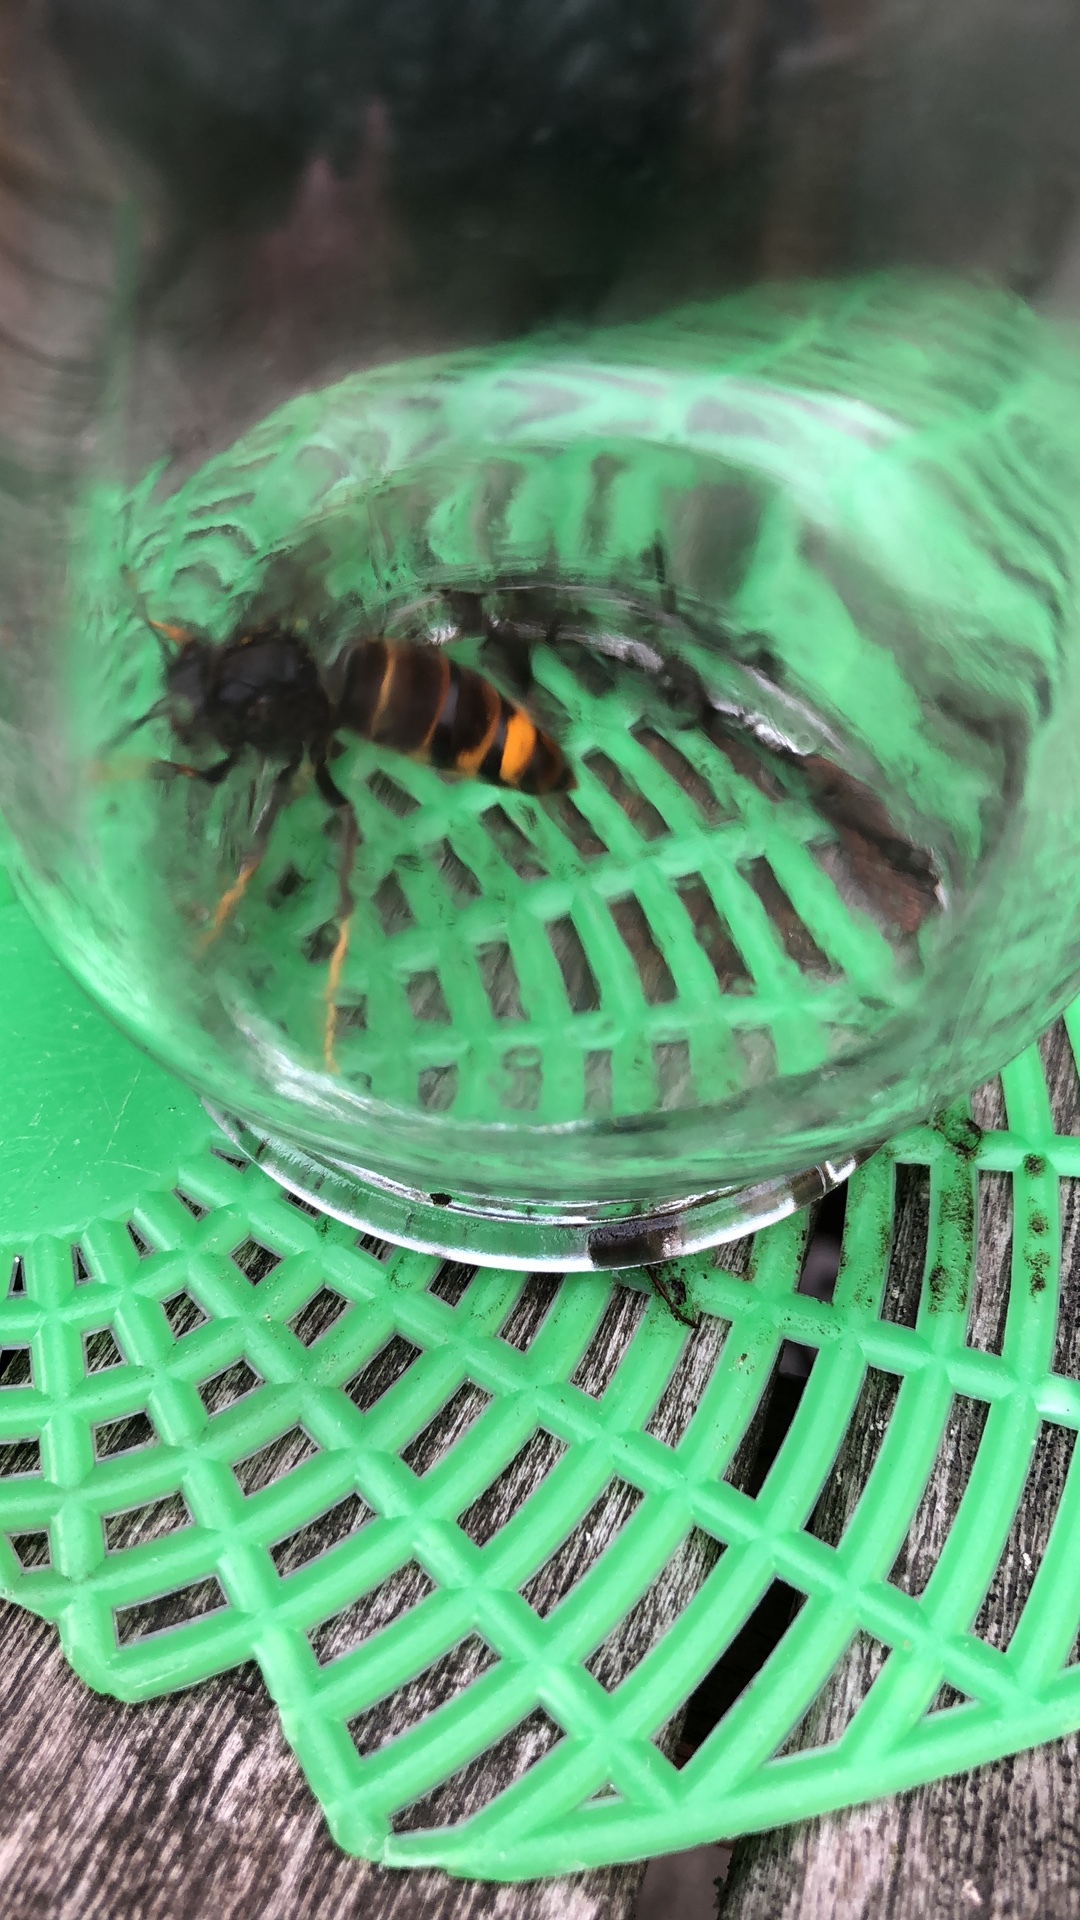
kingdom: Animalia
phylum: Arthropoda
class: Insecta
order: Hymenoptera
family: Vespidae
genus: Vespa
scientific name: Vespa velutina
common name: Asian hornet
